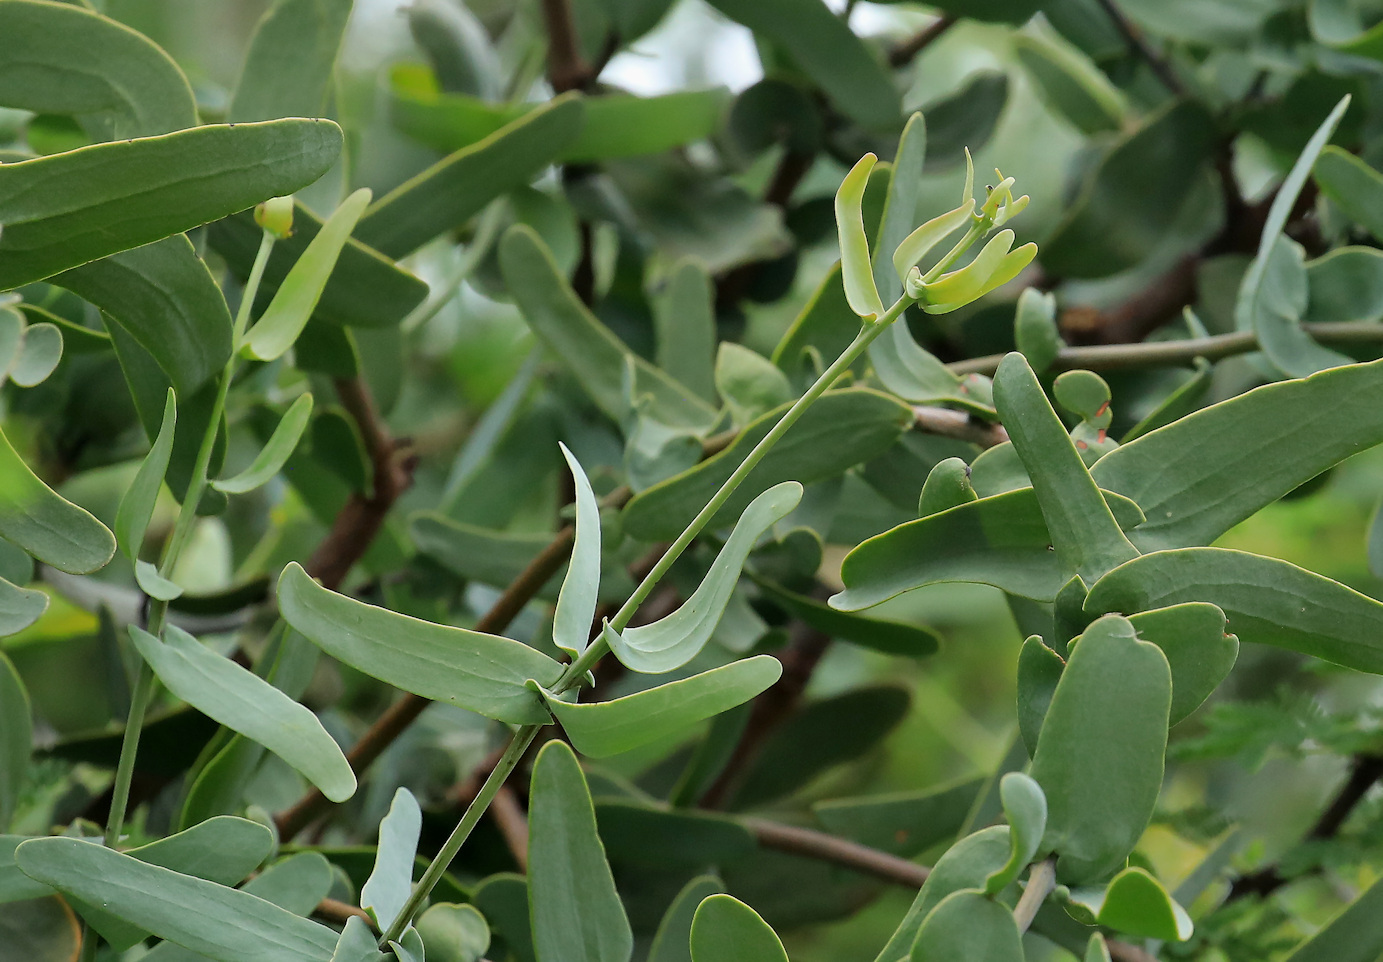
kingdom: Plantae
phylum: Tracheophyta
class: Magnoliopsida
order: Santalales
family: Loranthaceae
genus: Plicosepalus
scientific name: Plicosepalus amplexicaulis
